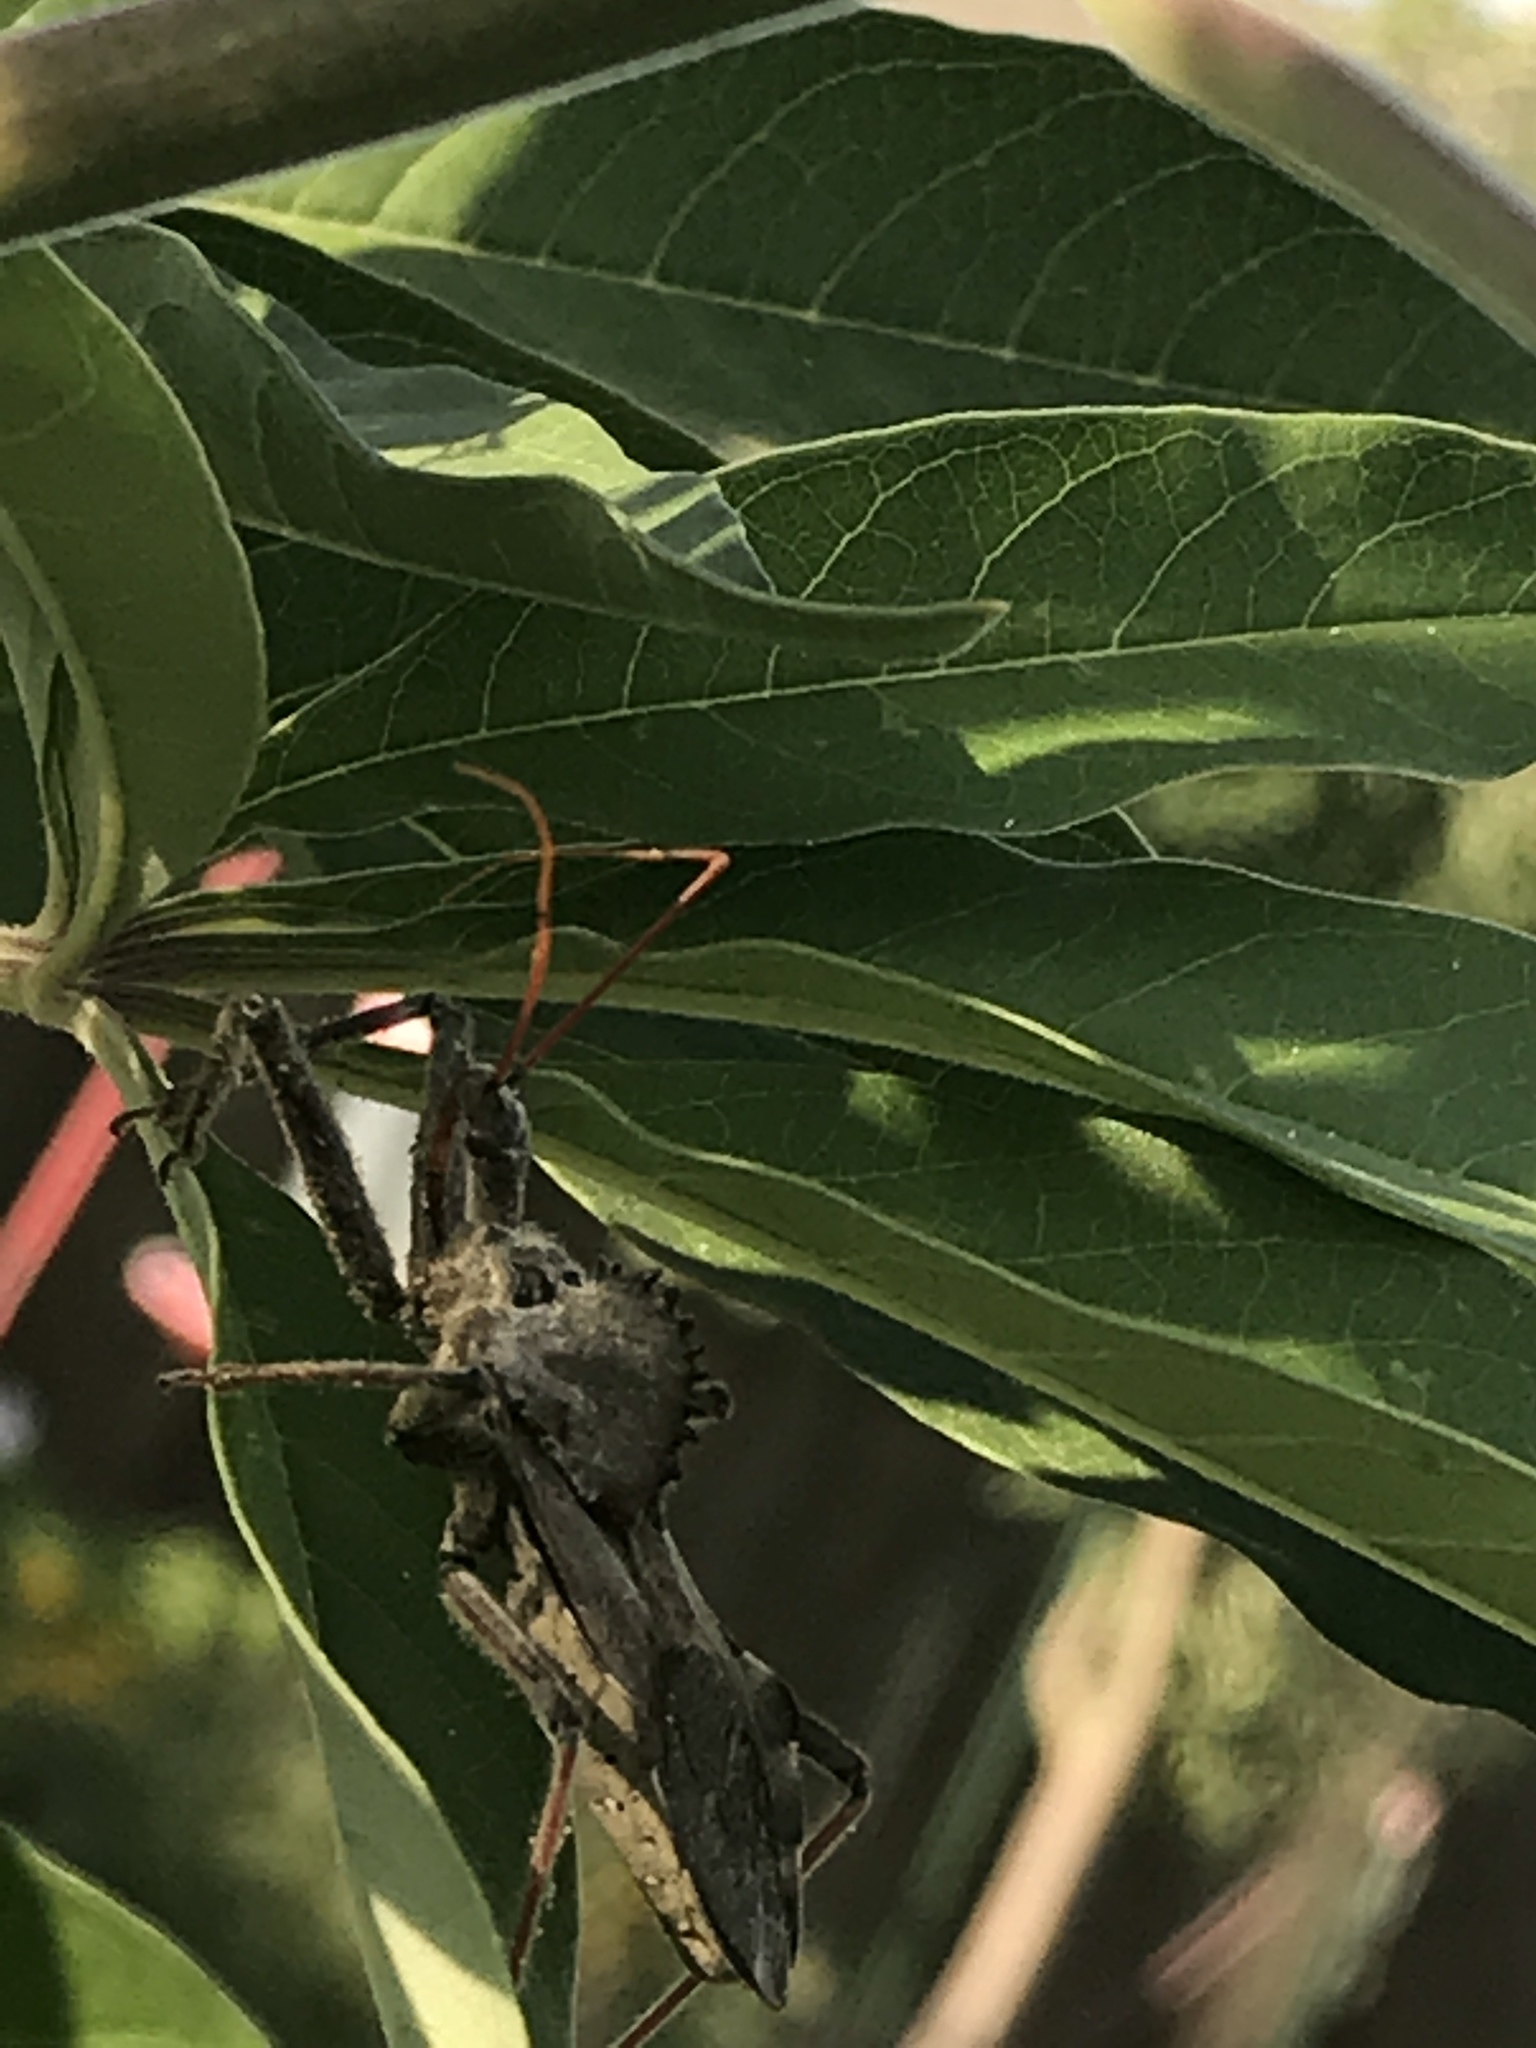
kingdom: Animalia
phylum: Arthropoda
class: Insecta
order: Hemiptera
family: Reduviidae
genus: Arilus
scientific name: Arilus cristatus
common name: North american wheel bug
